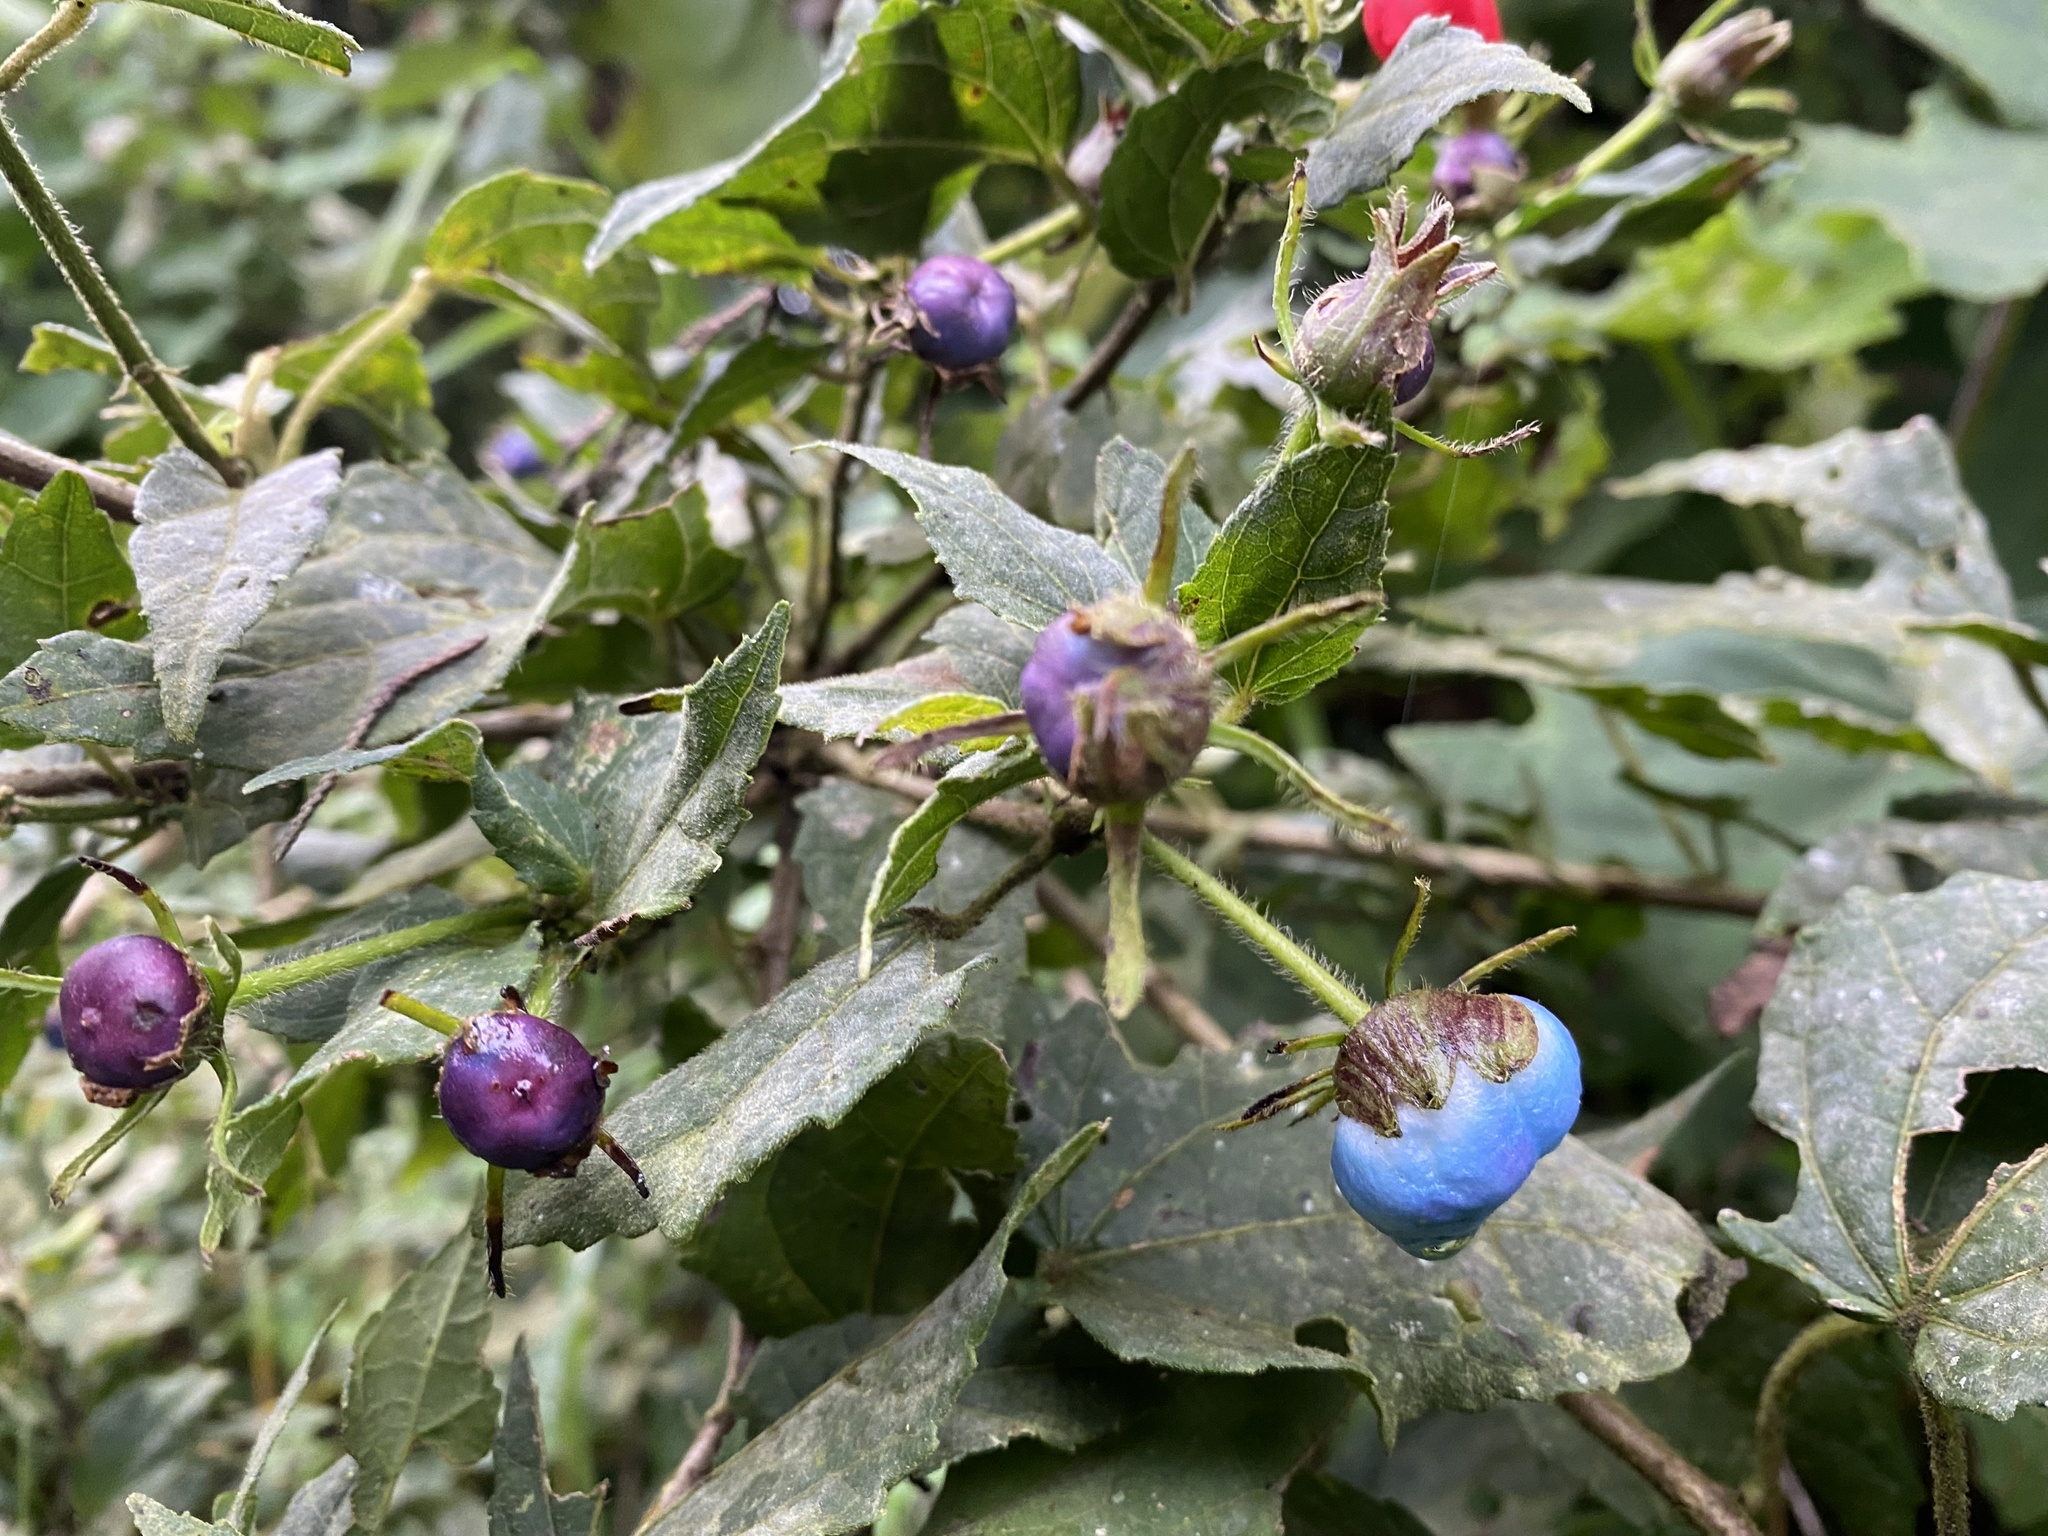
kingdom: Plantae
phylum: Tracheophyta
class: Magnoliopsida
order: Malvales
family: Malvaceae
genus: Malvaviscus
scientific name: Malvaviscus arboreus
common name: Wax mallow
